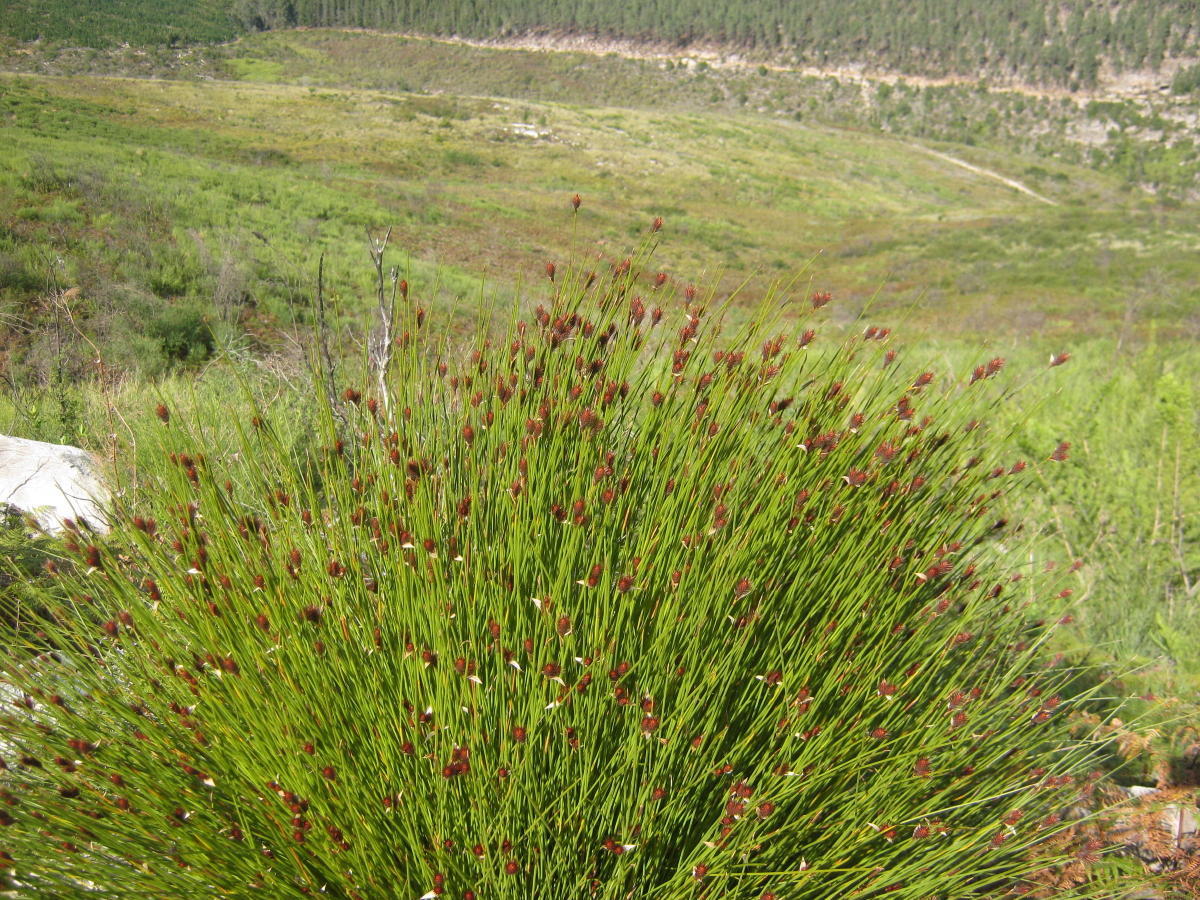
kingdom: Plantae
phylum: Tracheophyta
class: Liliopsida
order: Poales
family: Restionaceae
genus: Hypodiscus
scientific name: Hypodiscus aristatus
